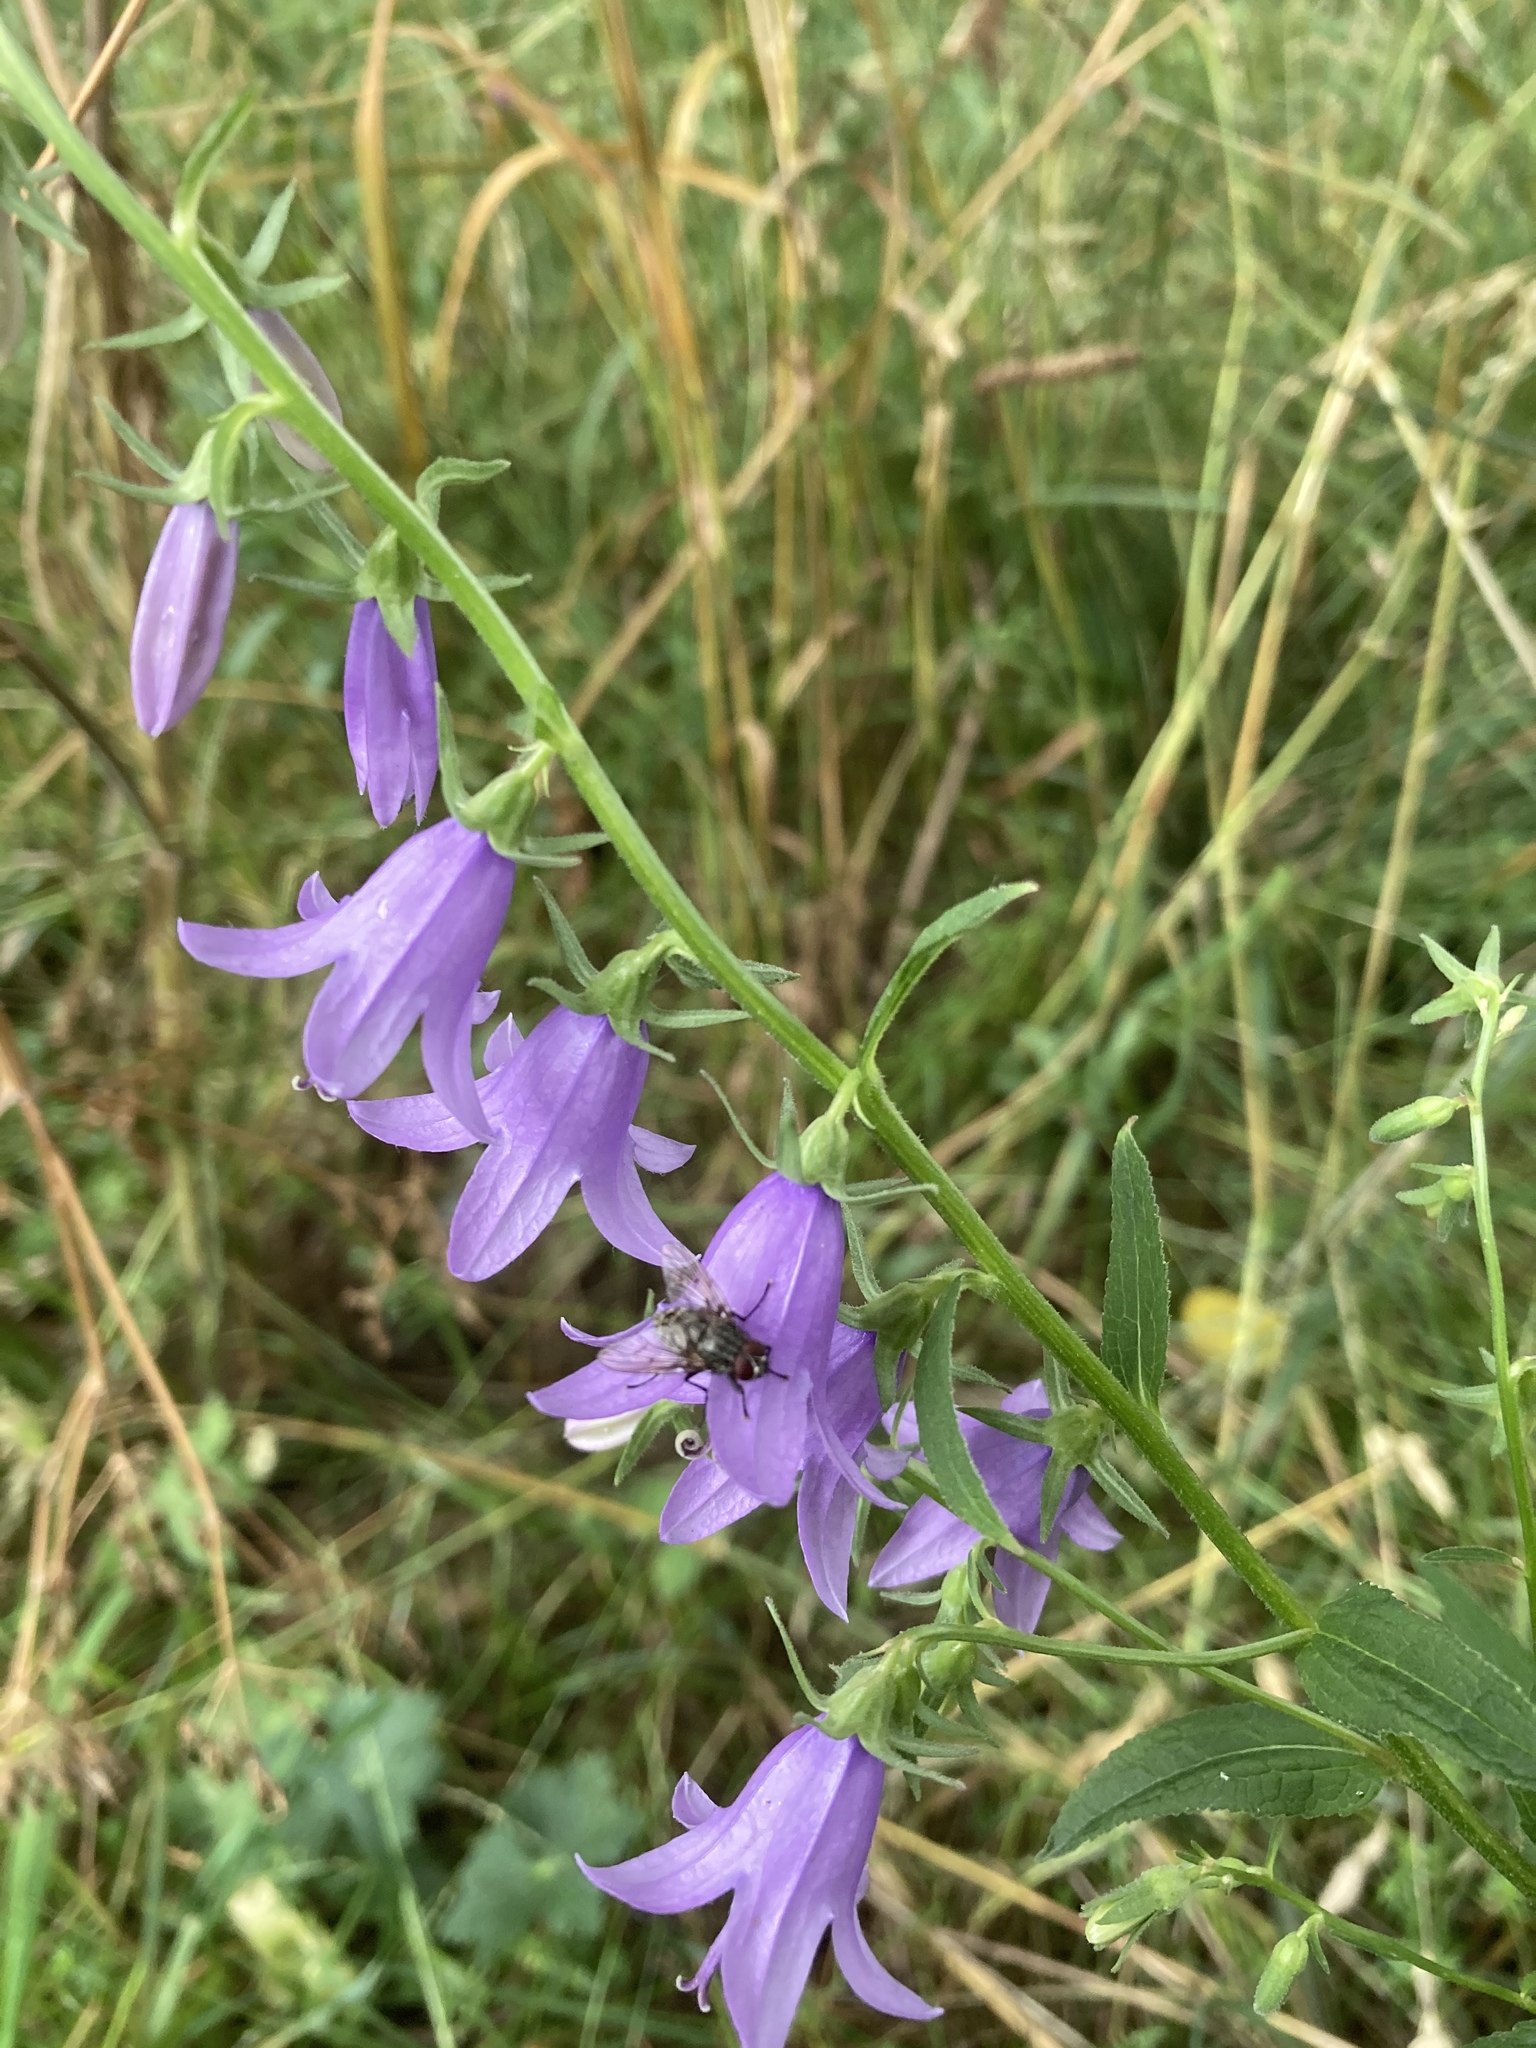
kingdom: Plantae
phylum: Tracheophyta
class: Magnoliopsida
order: Asterales
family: Campanulaceae
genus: Campanula
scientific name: Campanula rapunculoides
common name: Creeping bellflower
